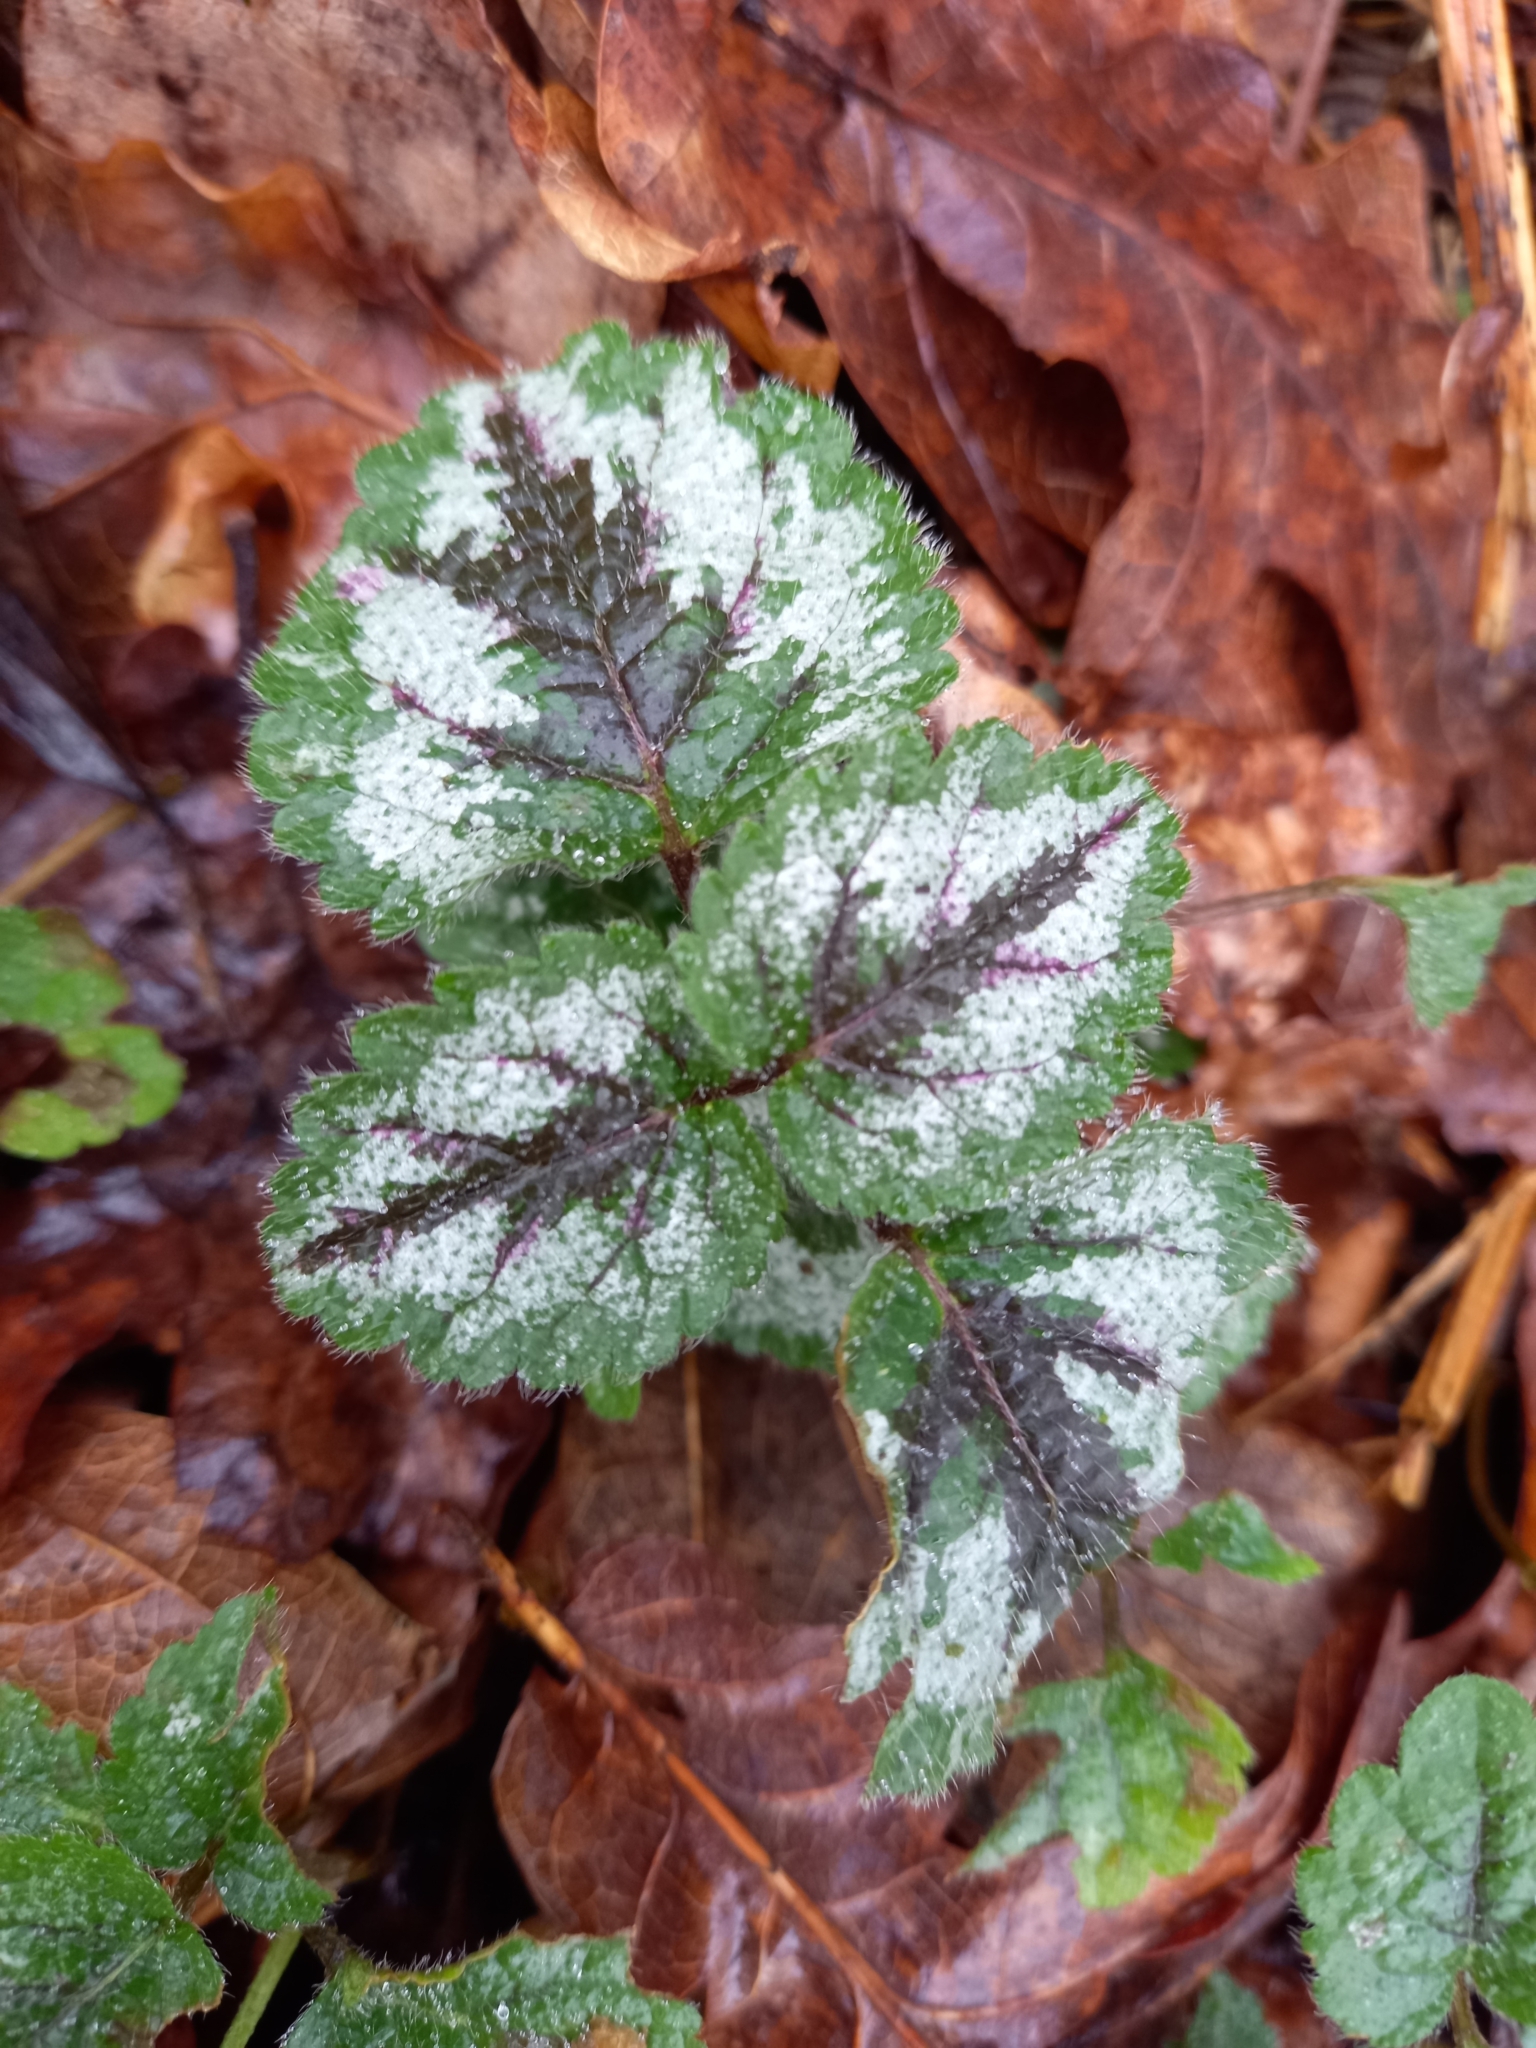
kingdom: Plantae
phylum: Tracheophyta
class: Magnoliopsida
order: Lamiales
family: Lamiaceae
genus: Lamium
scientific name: Lamium galeobdolon
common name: Yellow archangel
